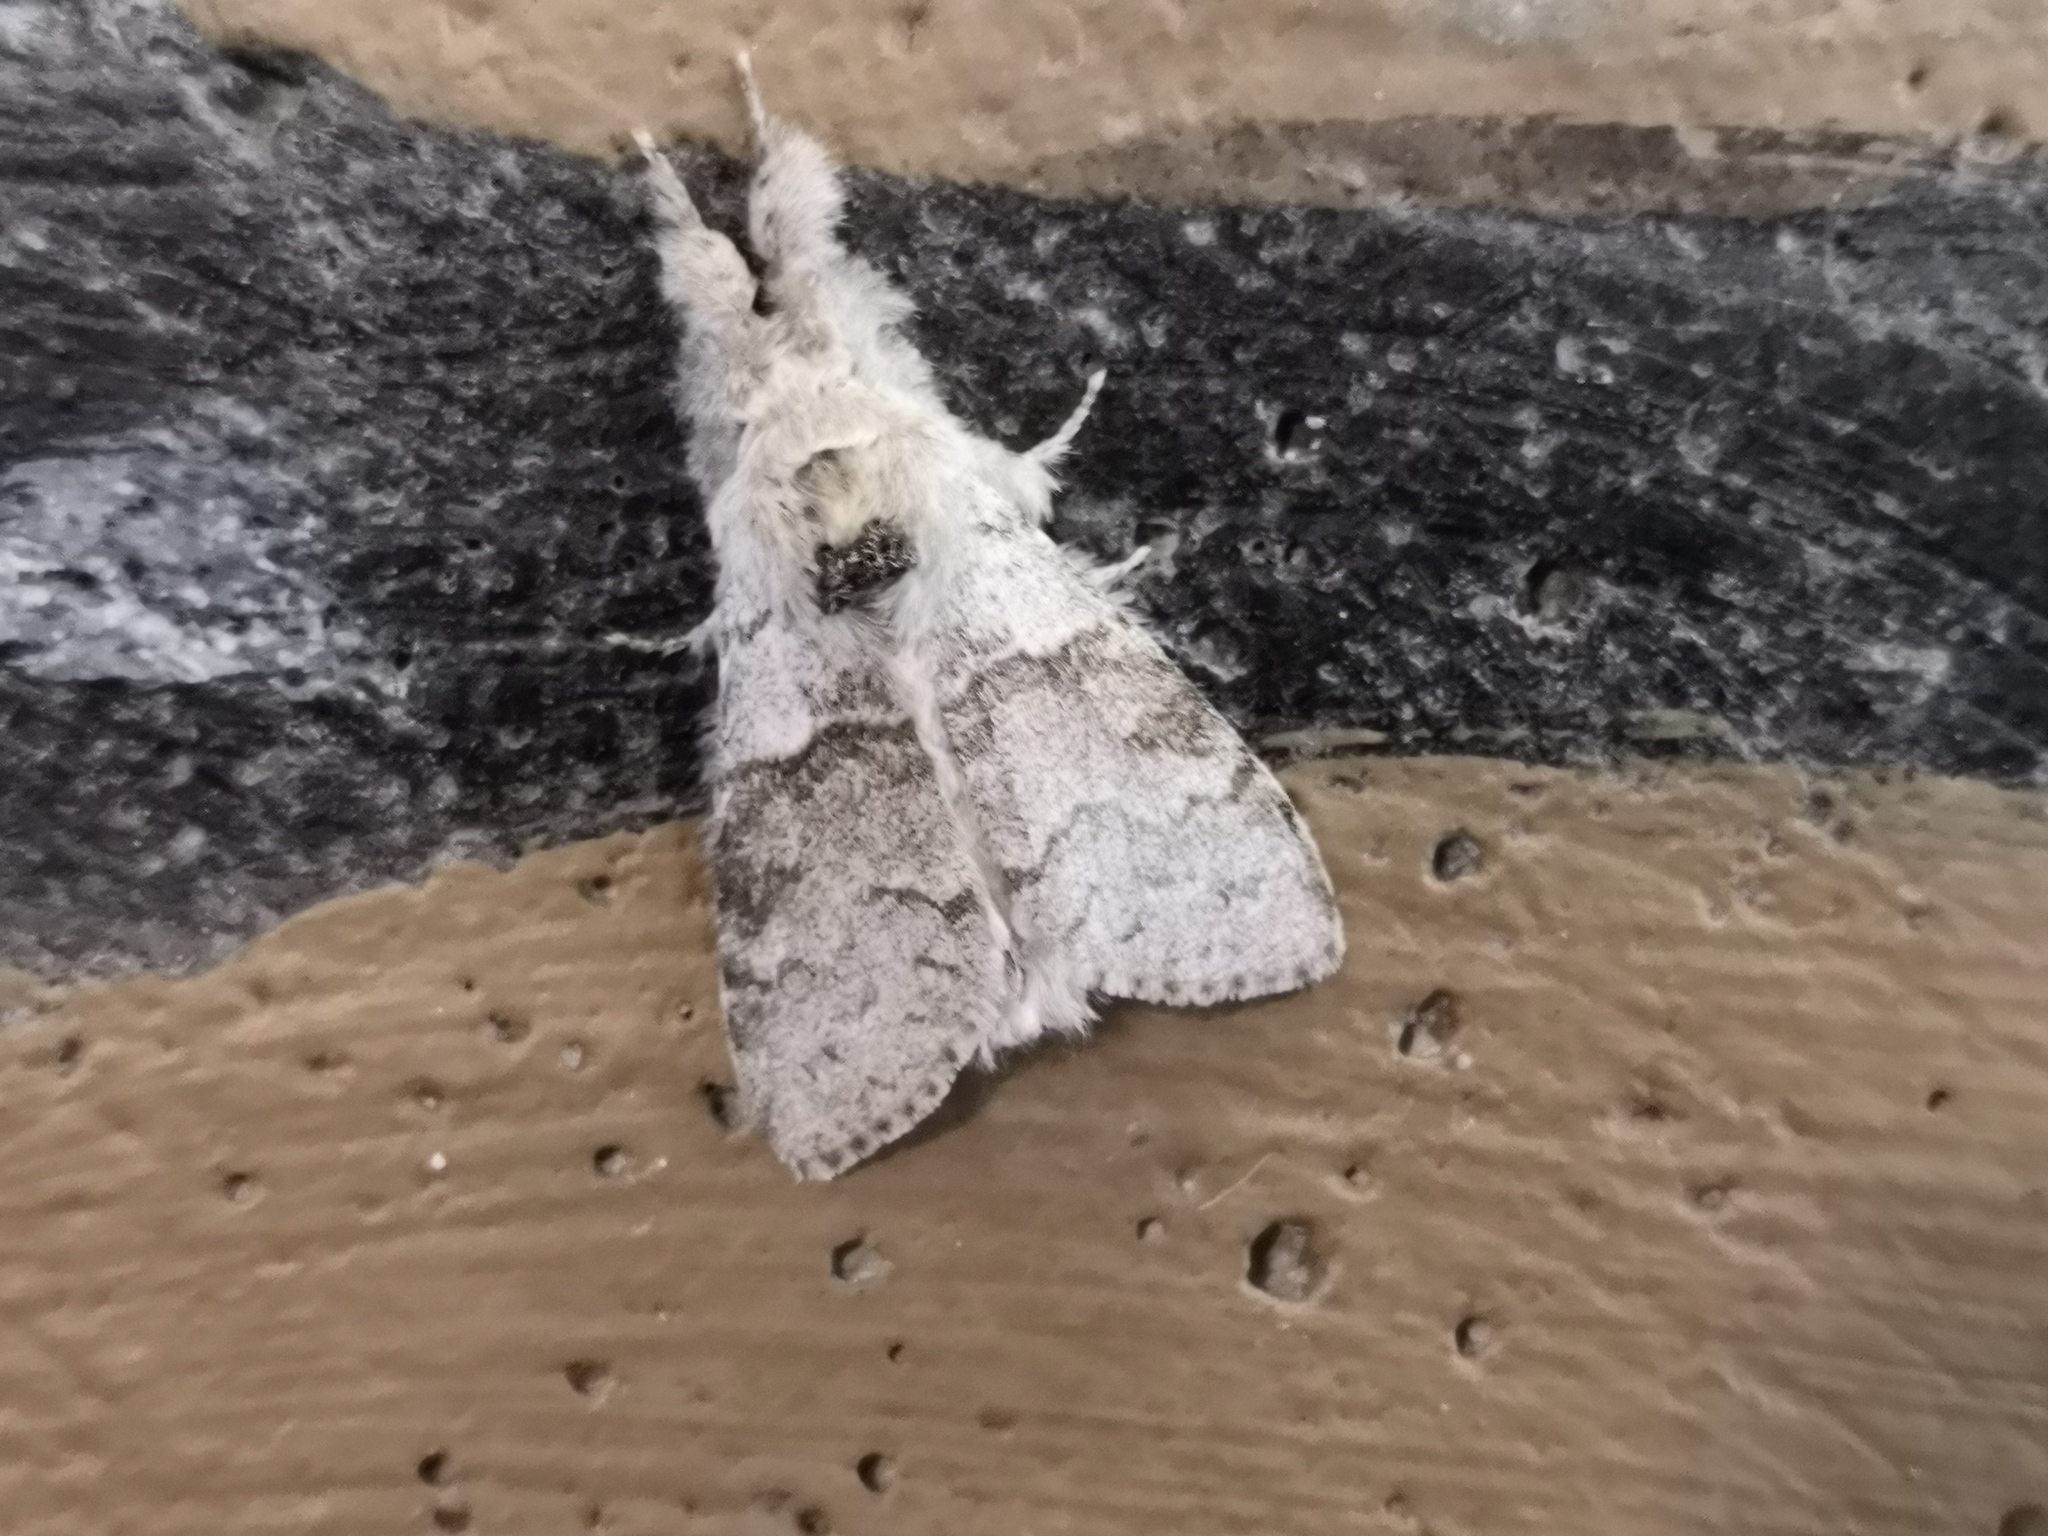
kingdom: Animalia
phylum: Arthropoda
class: Insecta
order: Lepidoptera
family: Erebidae
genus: Calliteara
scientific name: Calliteara pudibunda
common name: Pale tussock
